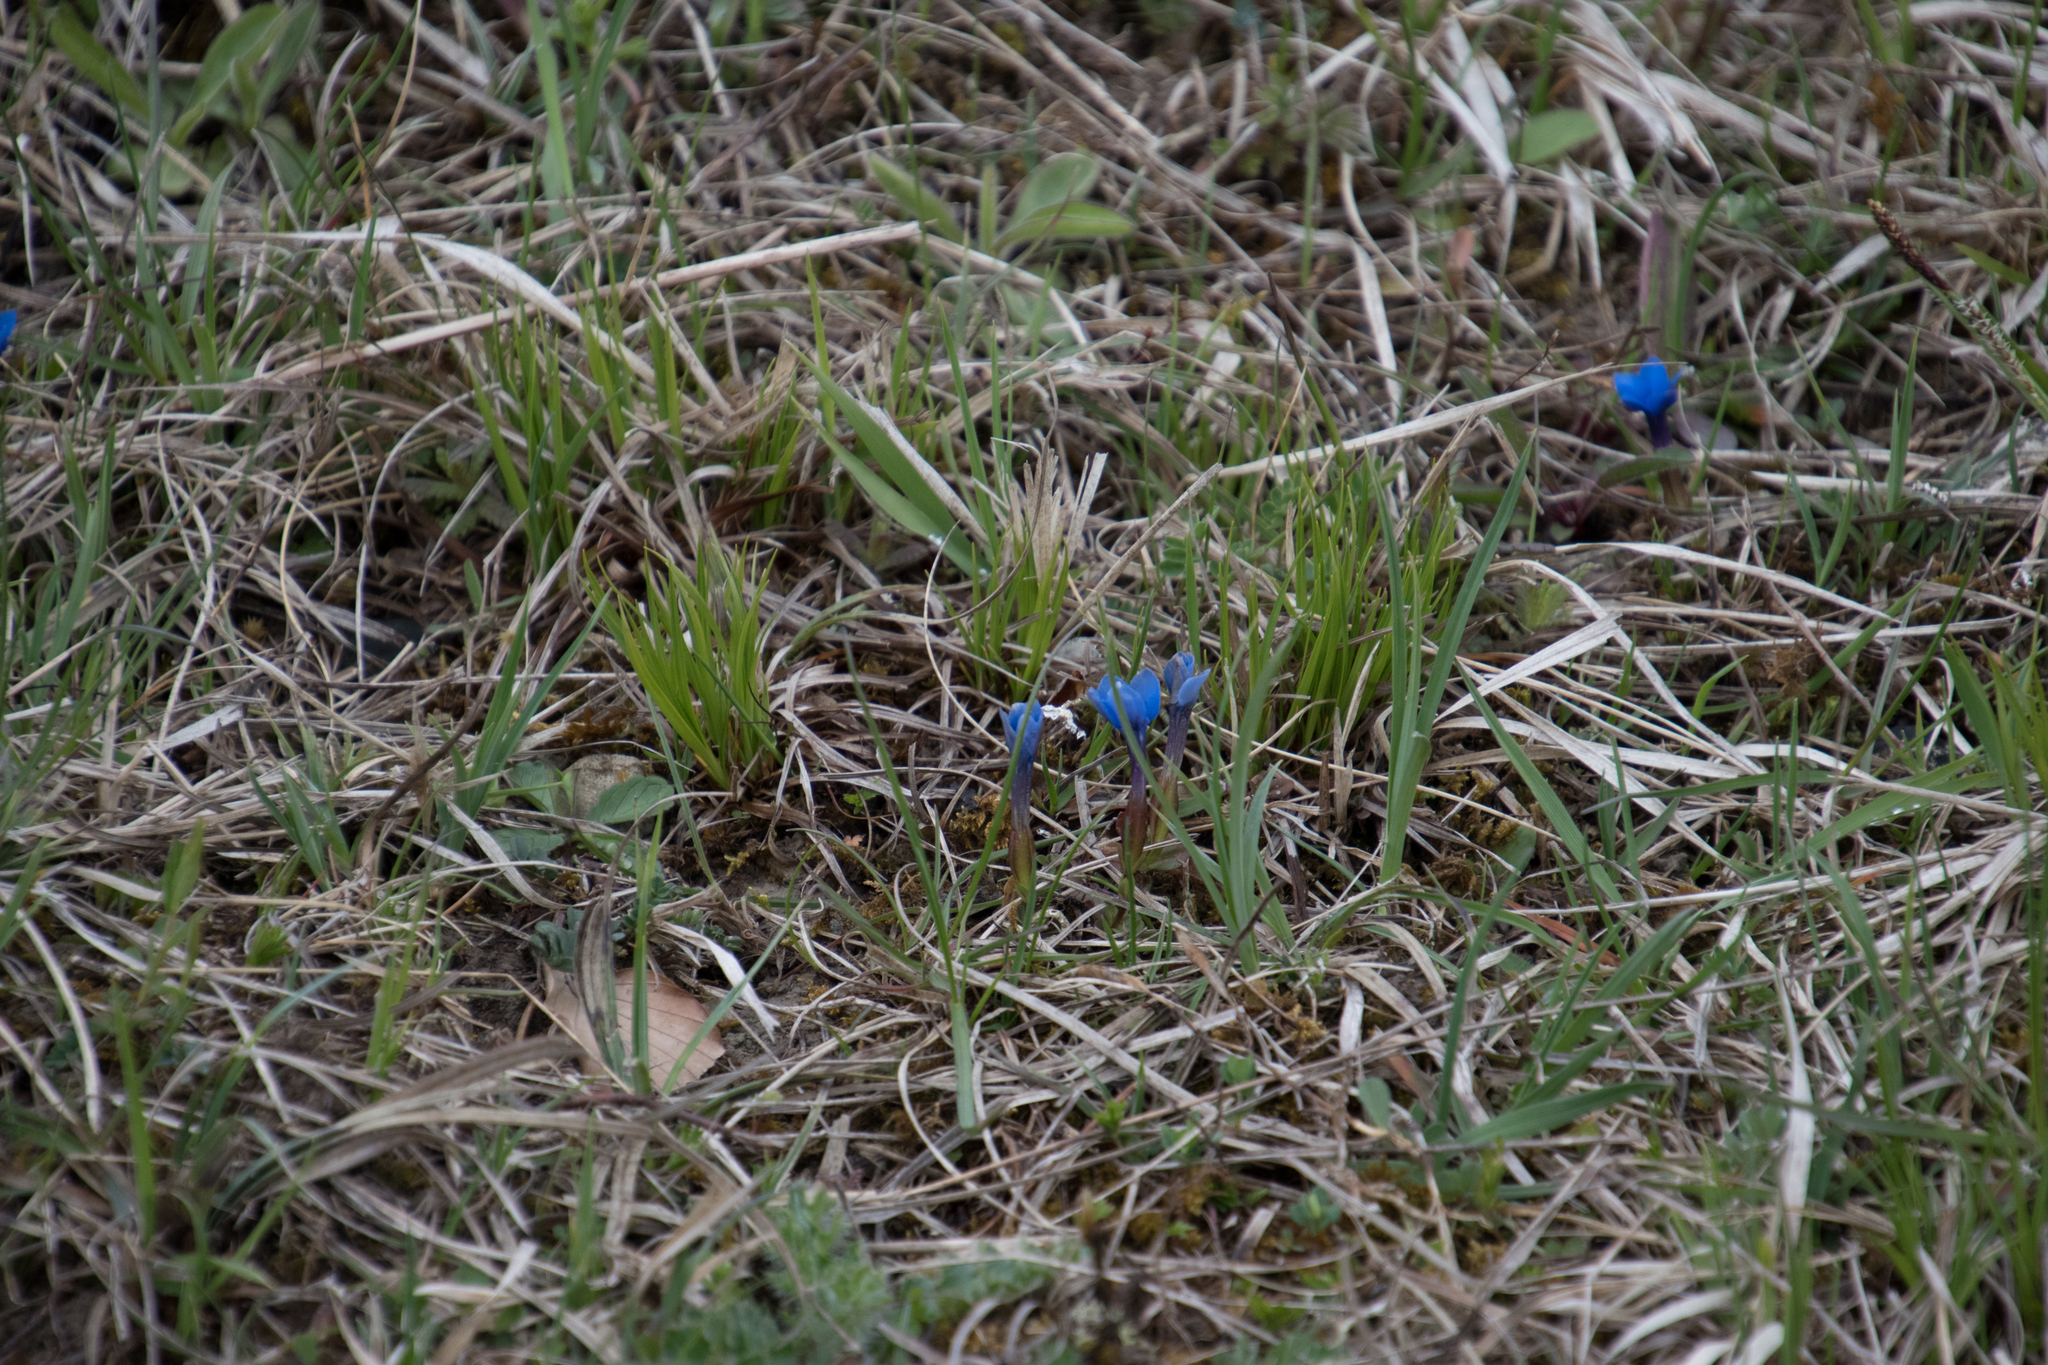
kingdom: Plantae
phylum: Tracheophyta
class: Magnoliopsida
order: Gentianales
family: Gentianaceae
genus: Gentiana
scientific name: Gentiana verna
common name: Spring gentian
